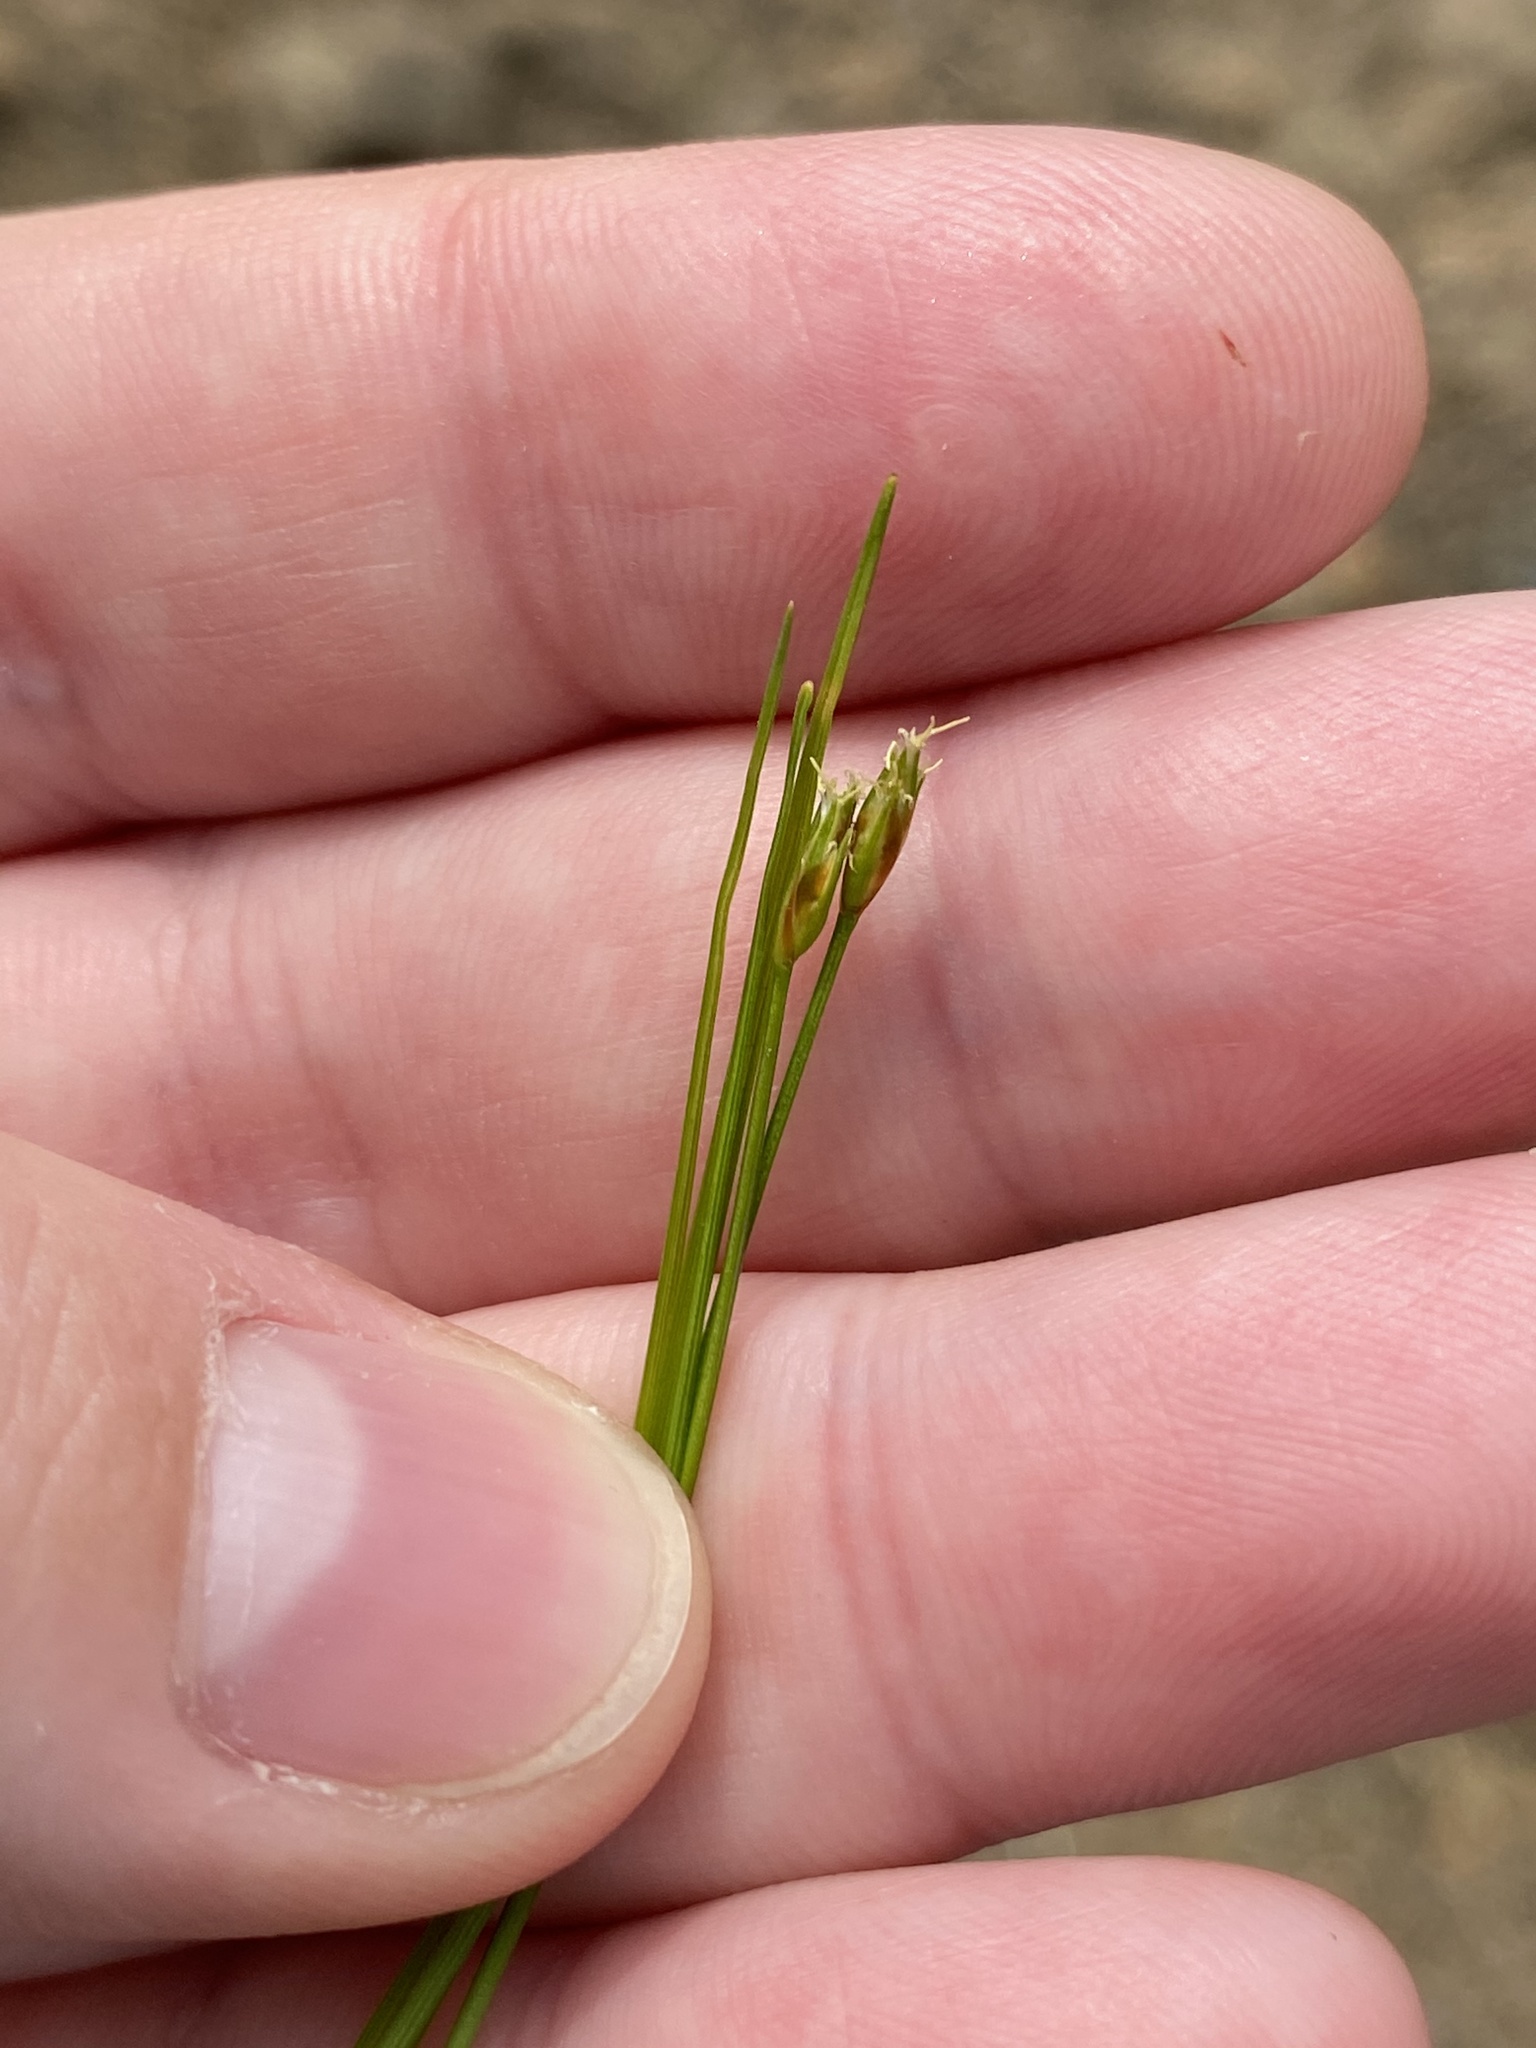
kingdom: Plantae
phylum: Tracheophyta
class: Liliopsida
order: Poales
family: Cyperaceae
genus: Trichophorum
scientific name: Trichophorum planifolium
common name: Bashful bulrush
